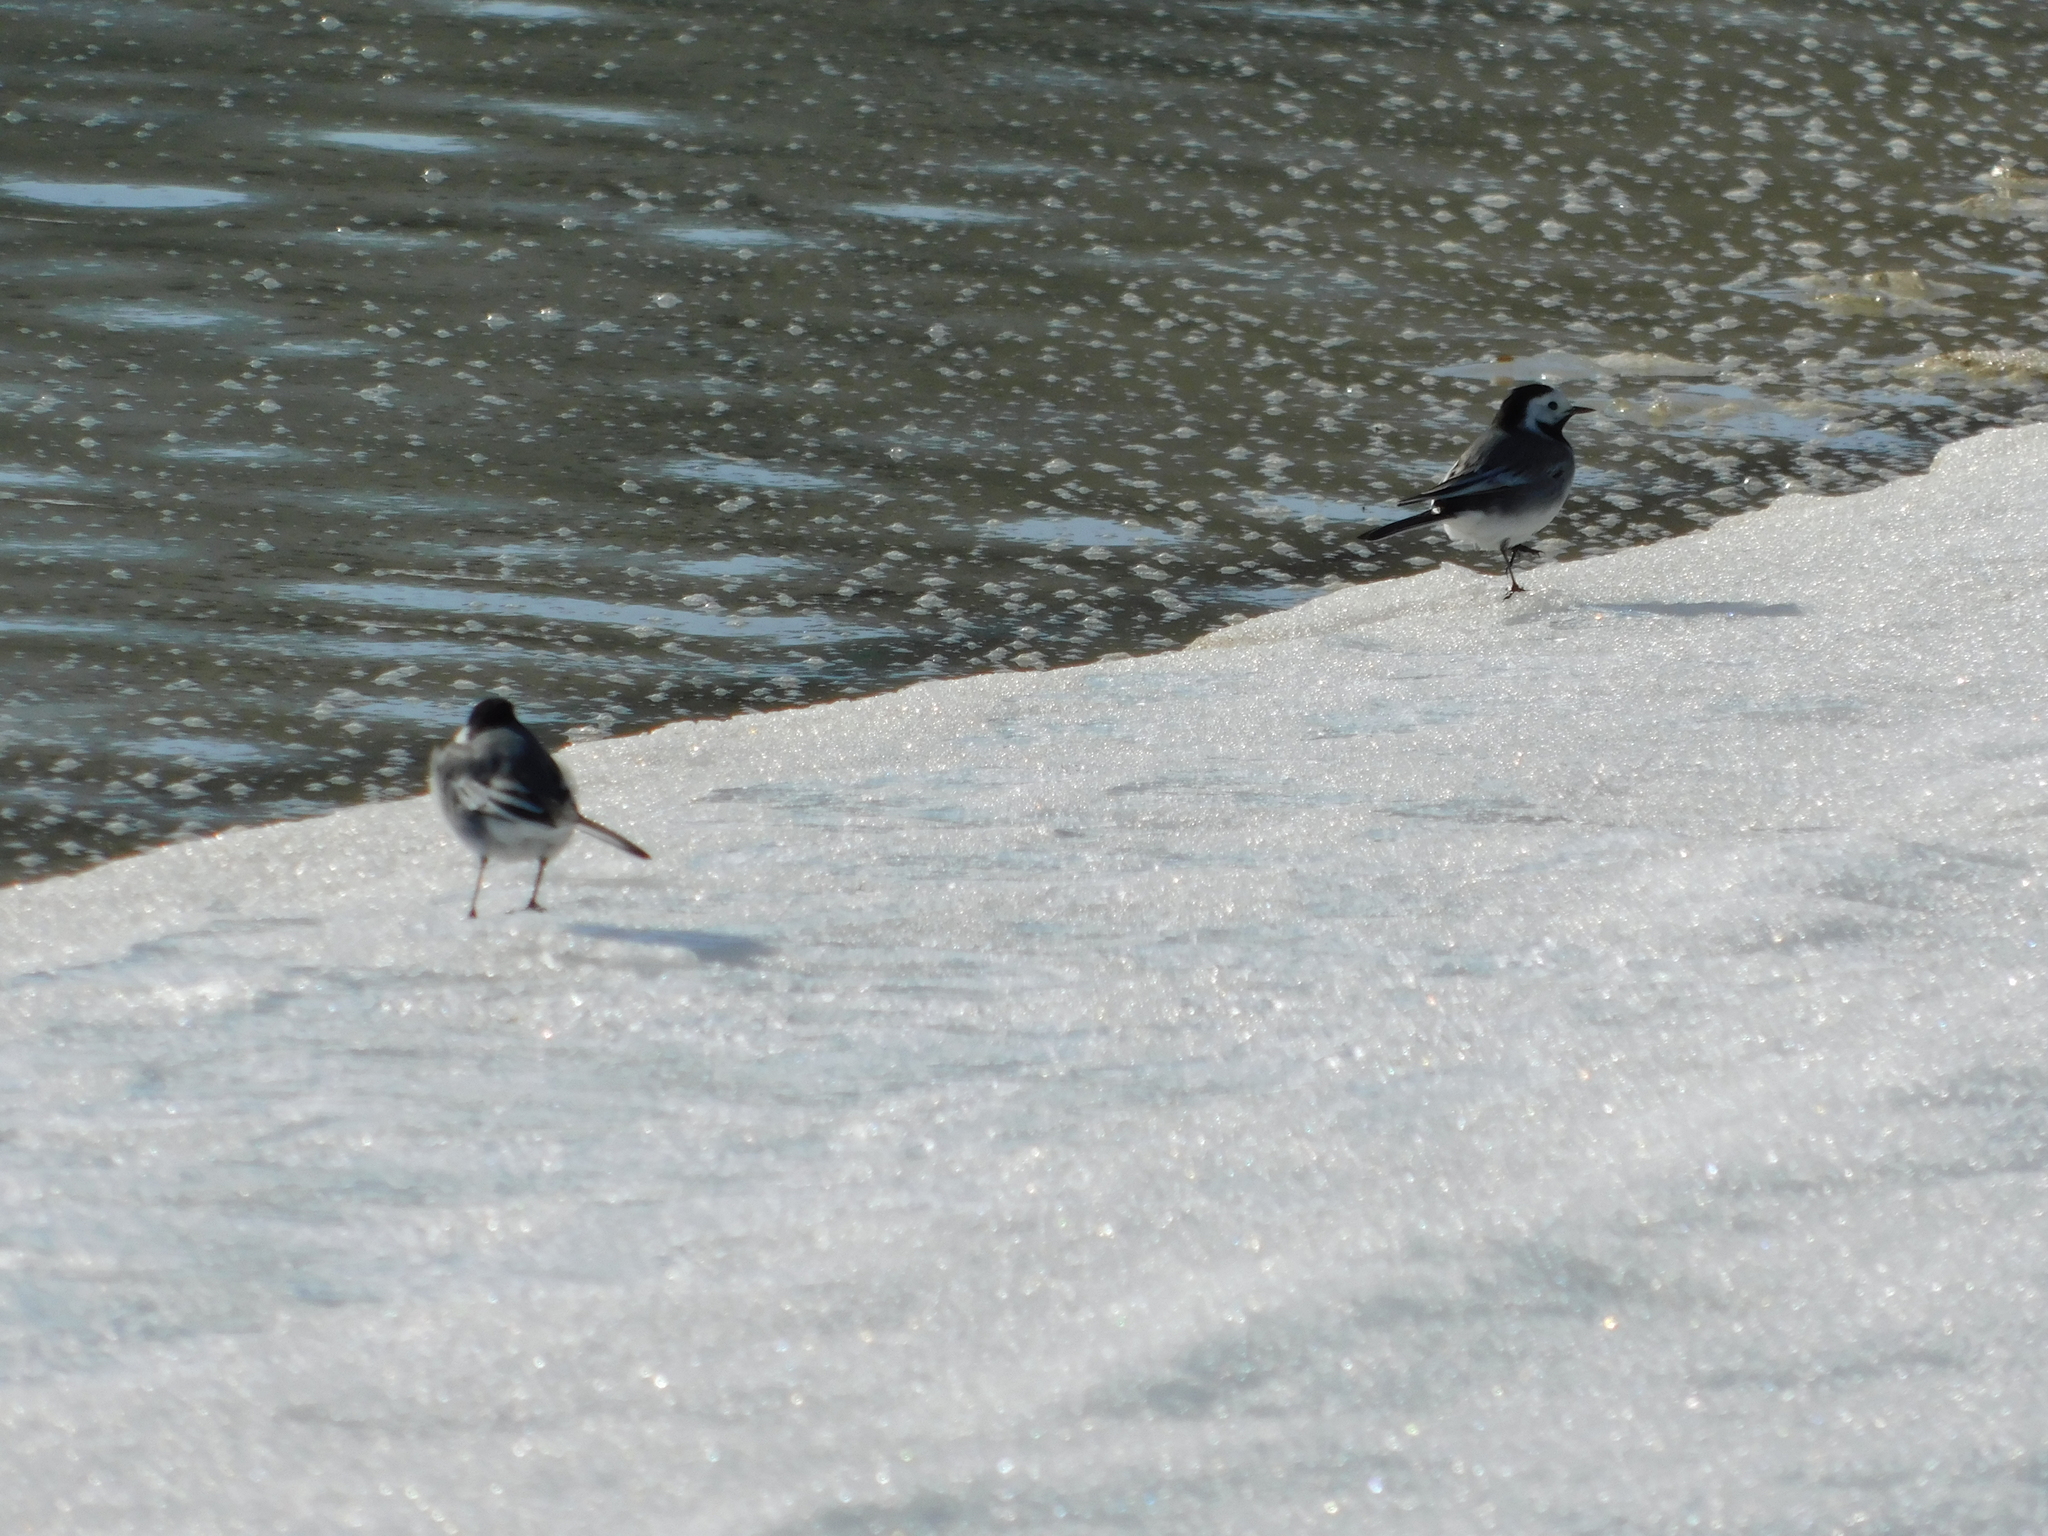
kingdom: Animalia
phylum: Chordata
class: Aves
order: Passeriformes
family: Motacillidae
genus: Motacilla
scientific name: Motacilla alba
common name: White wagtail
